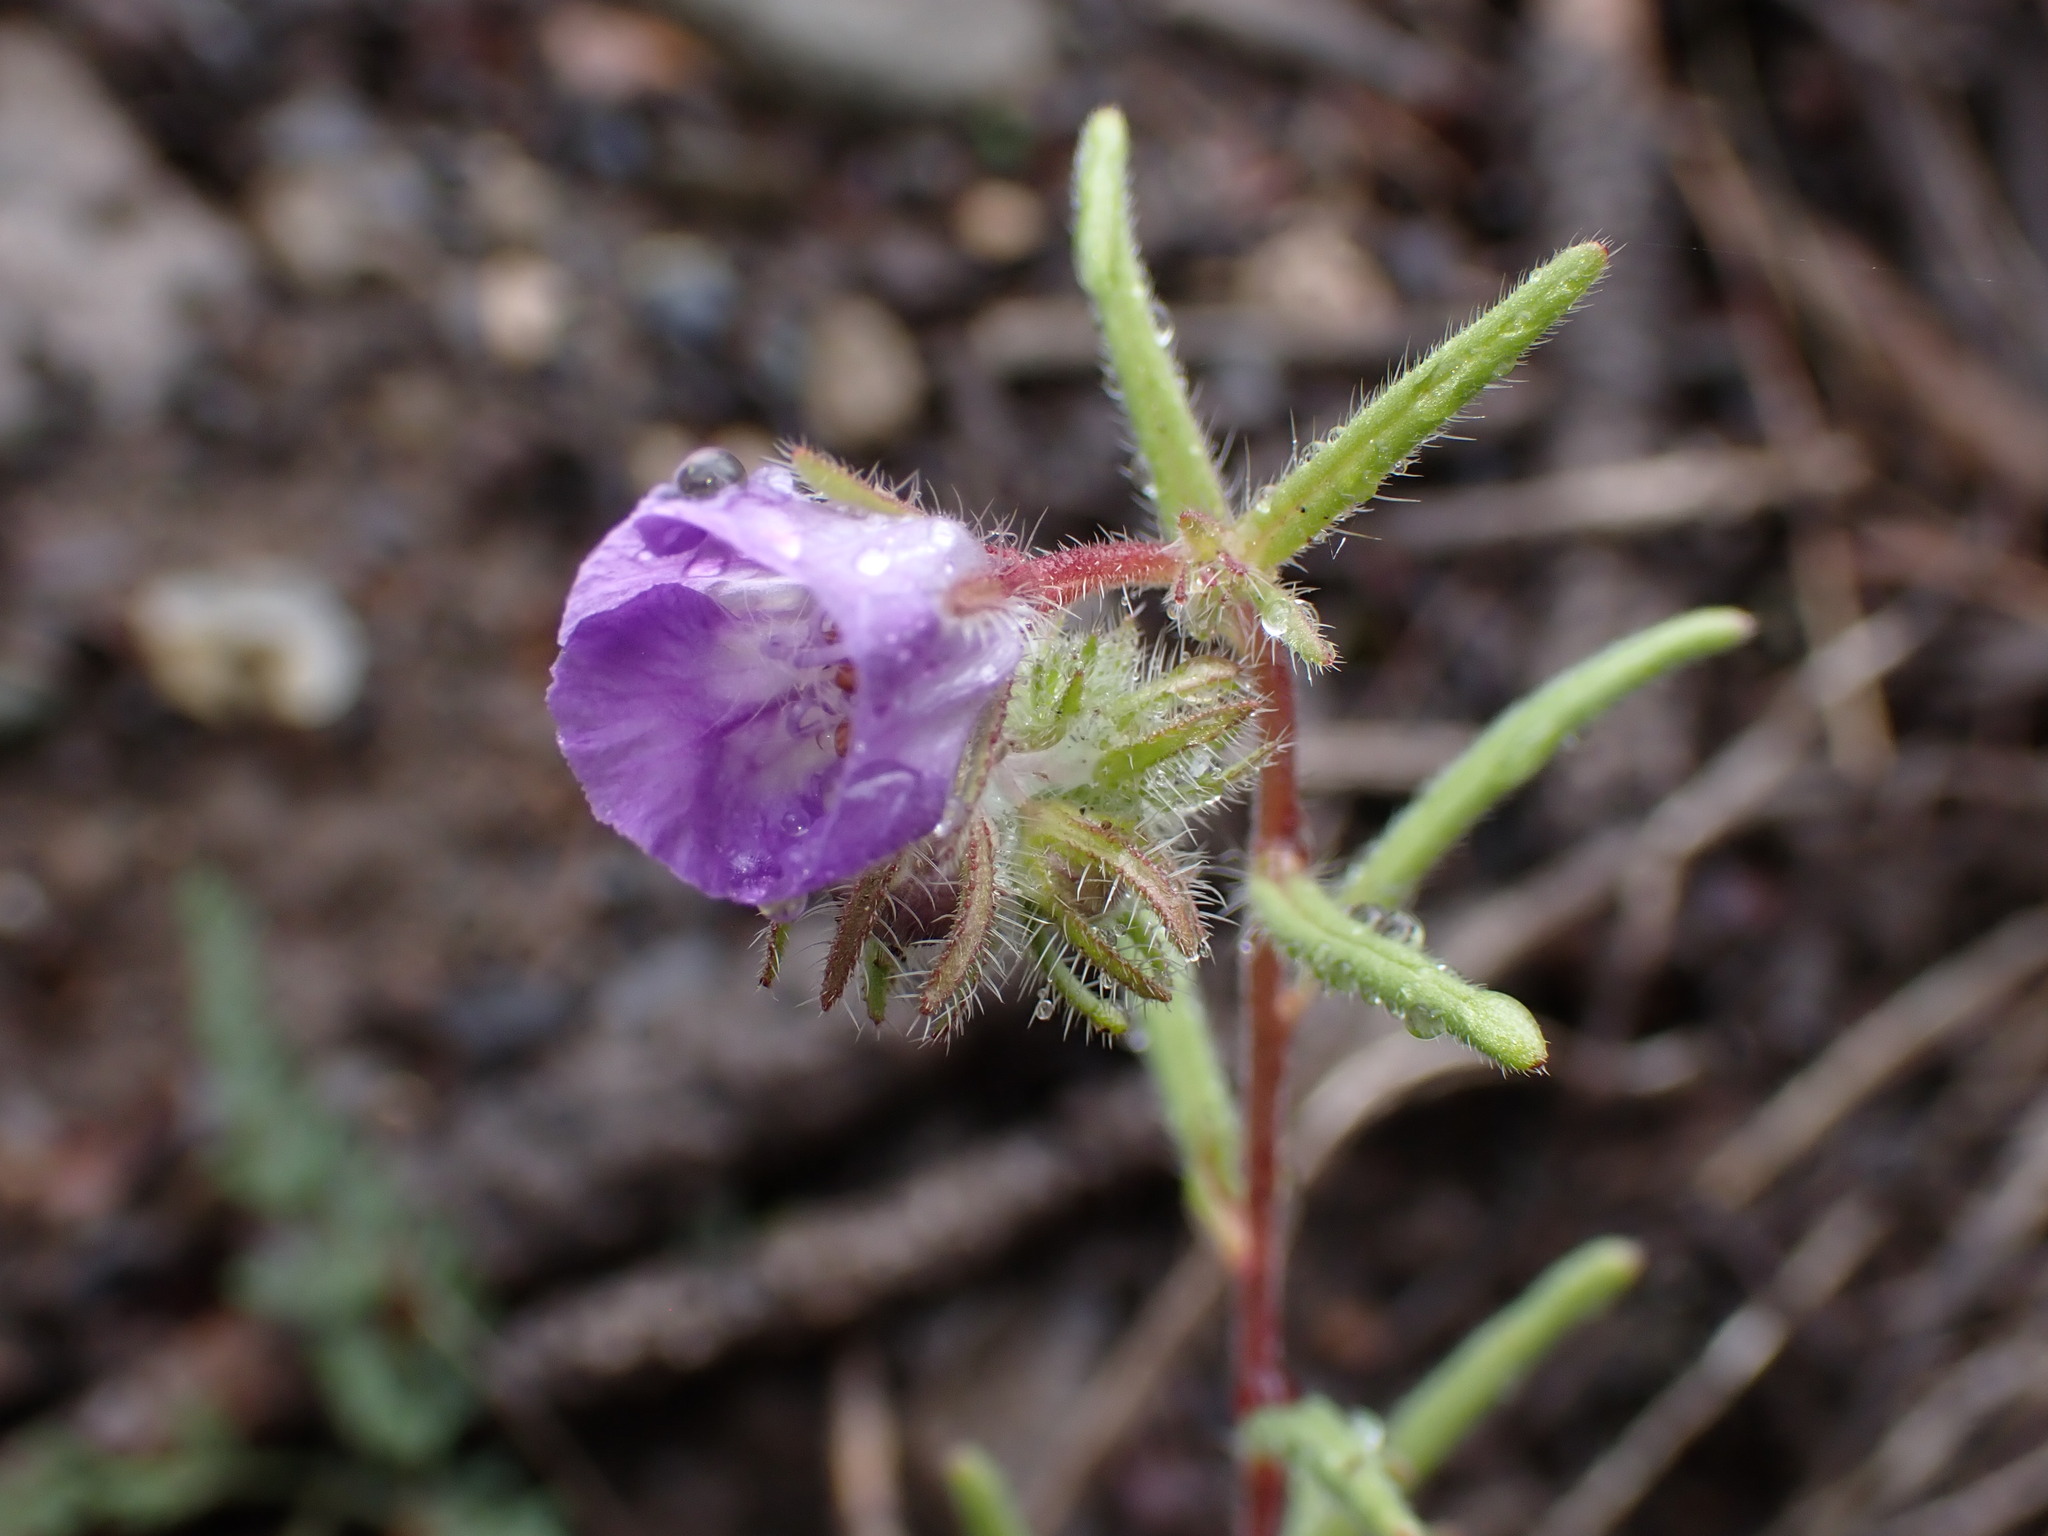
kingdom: Plantae
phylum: Tracheophyta
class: Magnoliopsida
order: Boraginales
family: Hydrophyllaceae
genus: Phacelia
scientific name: Phacelia linearis
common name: Linear-leaved phacelia
